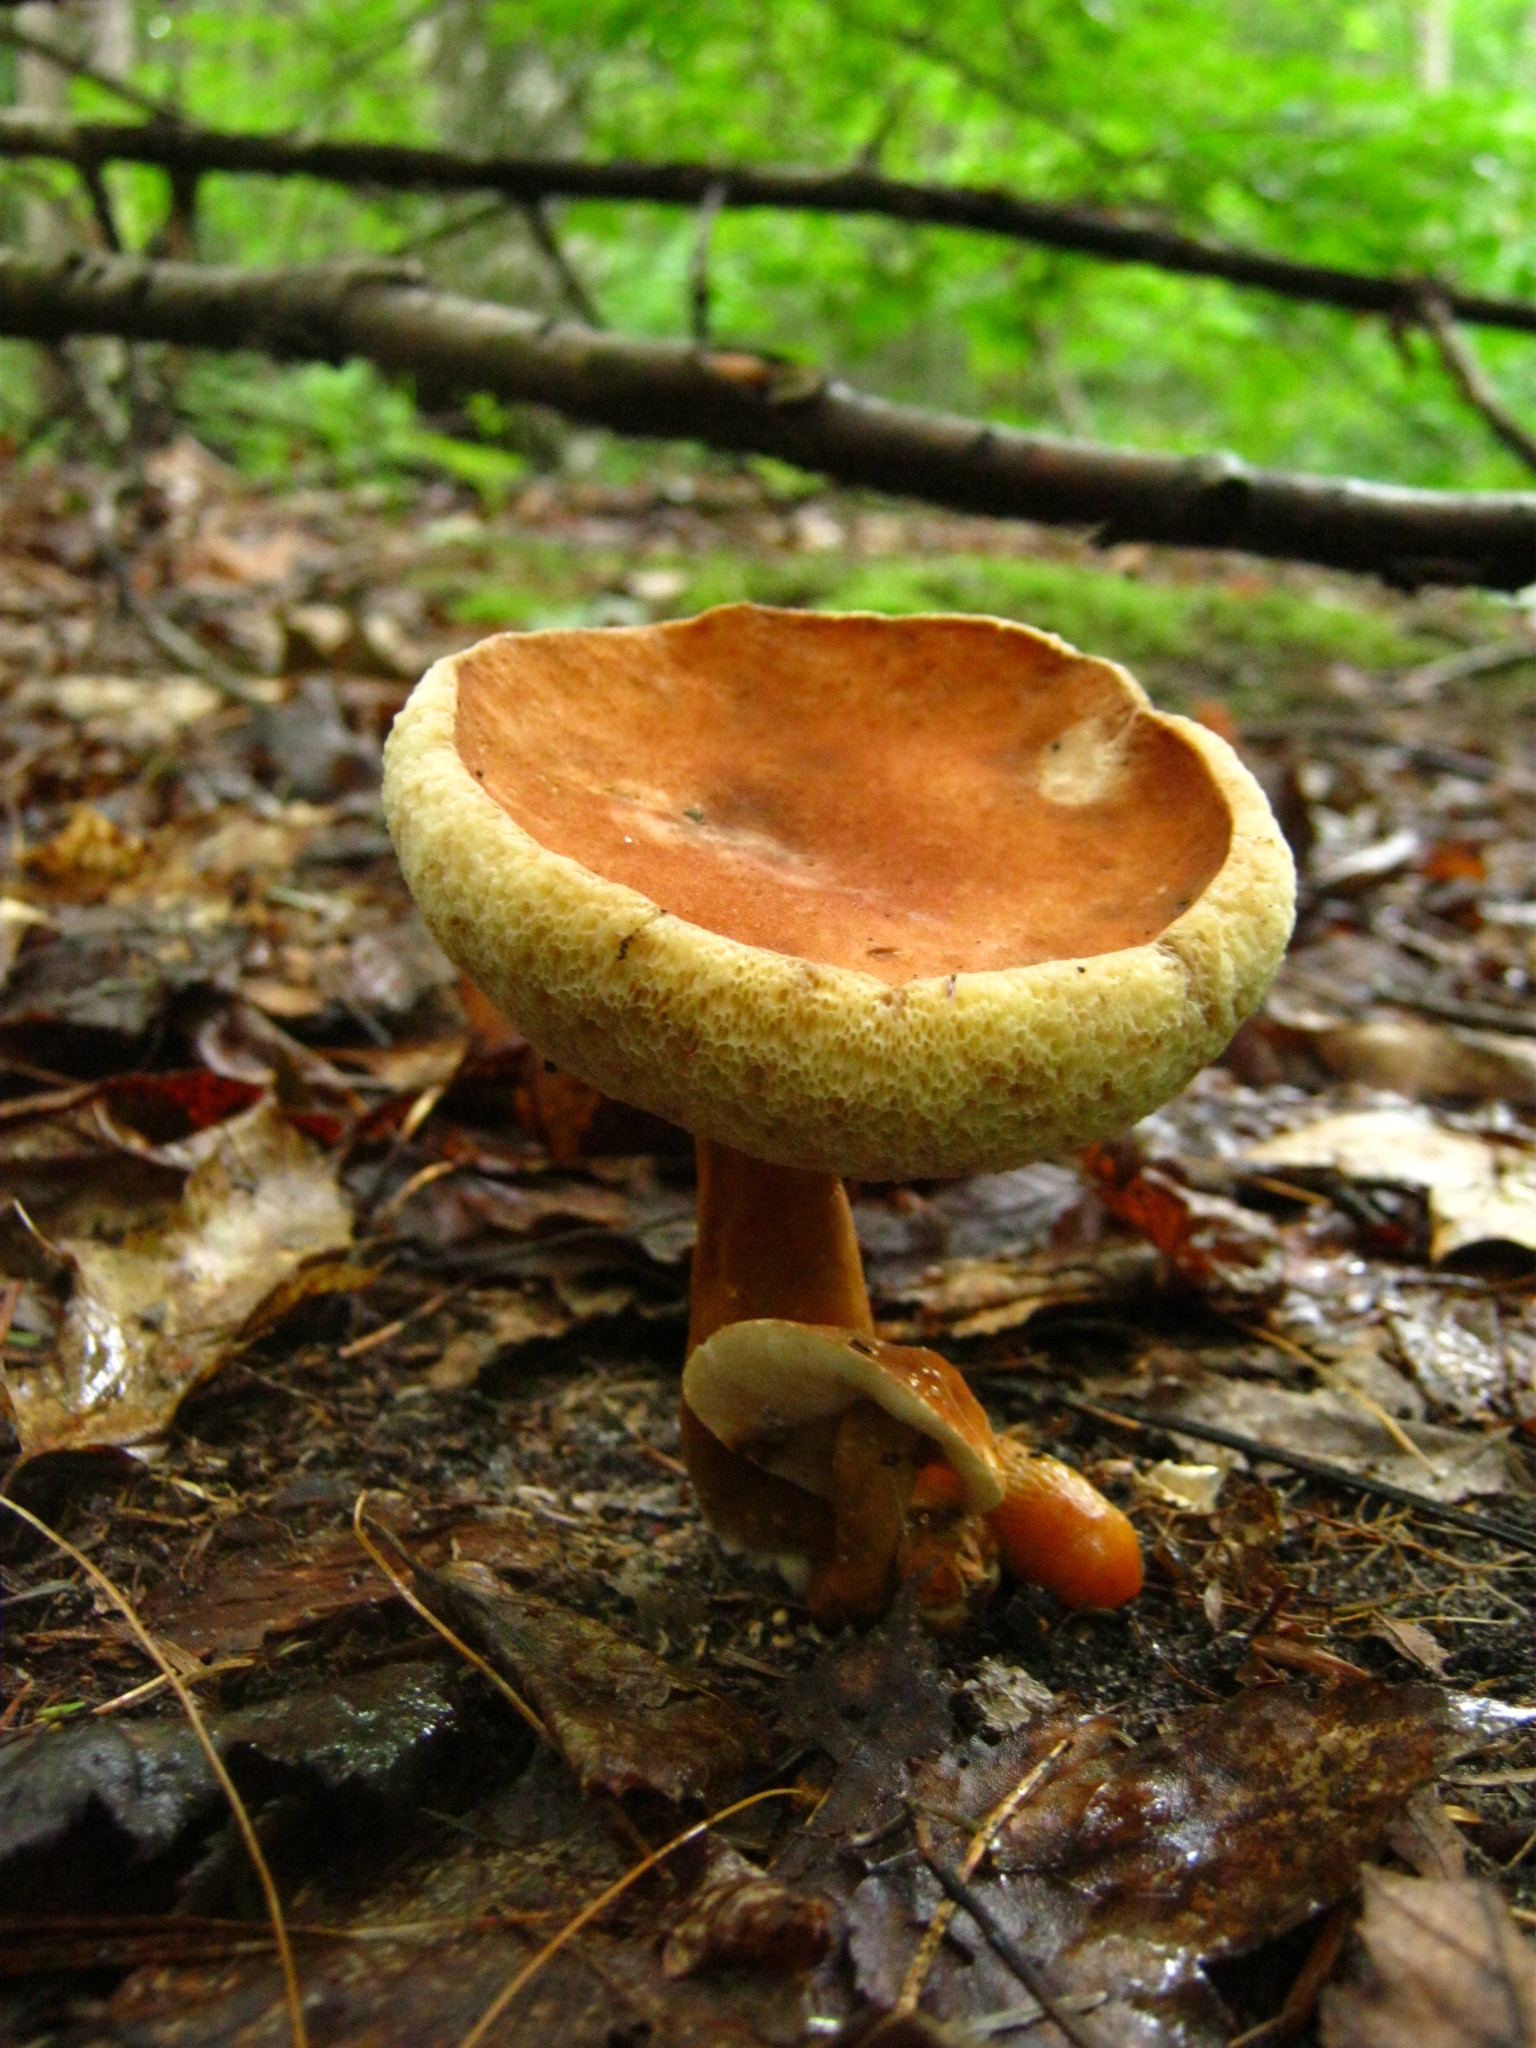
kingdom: Fungi
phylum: Basidiomycota
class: Agaricomycetes
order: Boletales
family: Gyroporaceae
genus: Gyroporus
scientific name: Gyroporus castaneus
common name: Chestnut bolete
